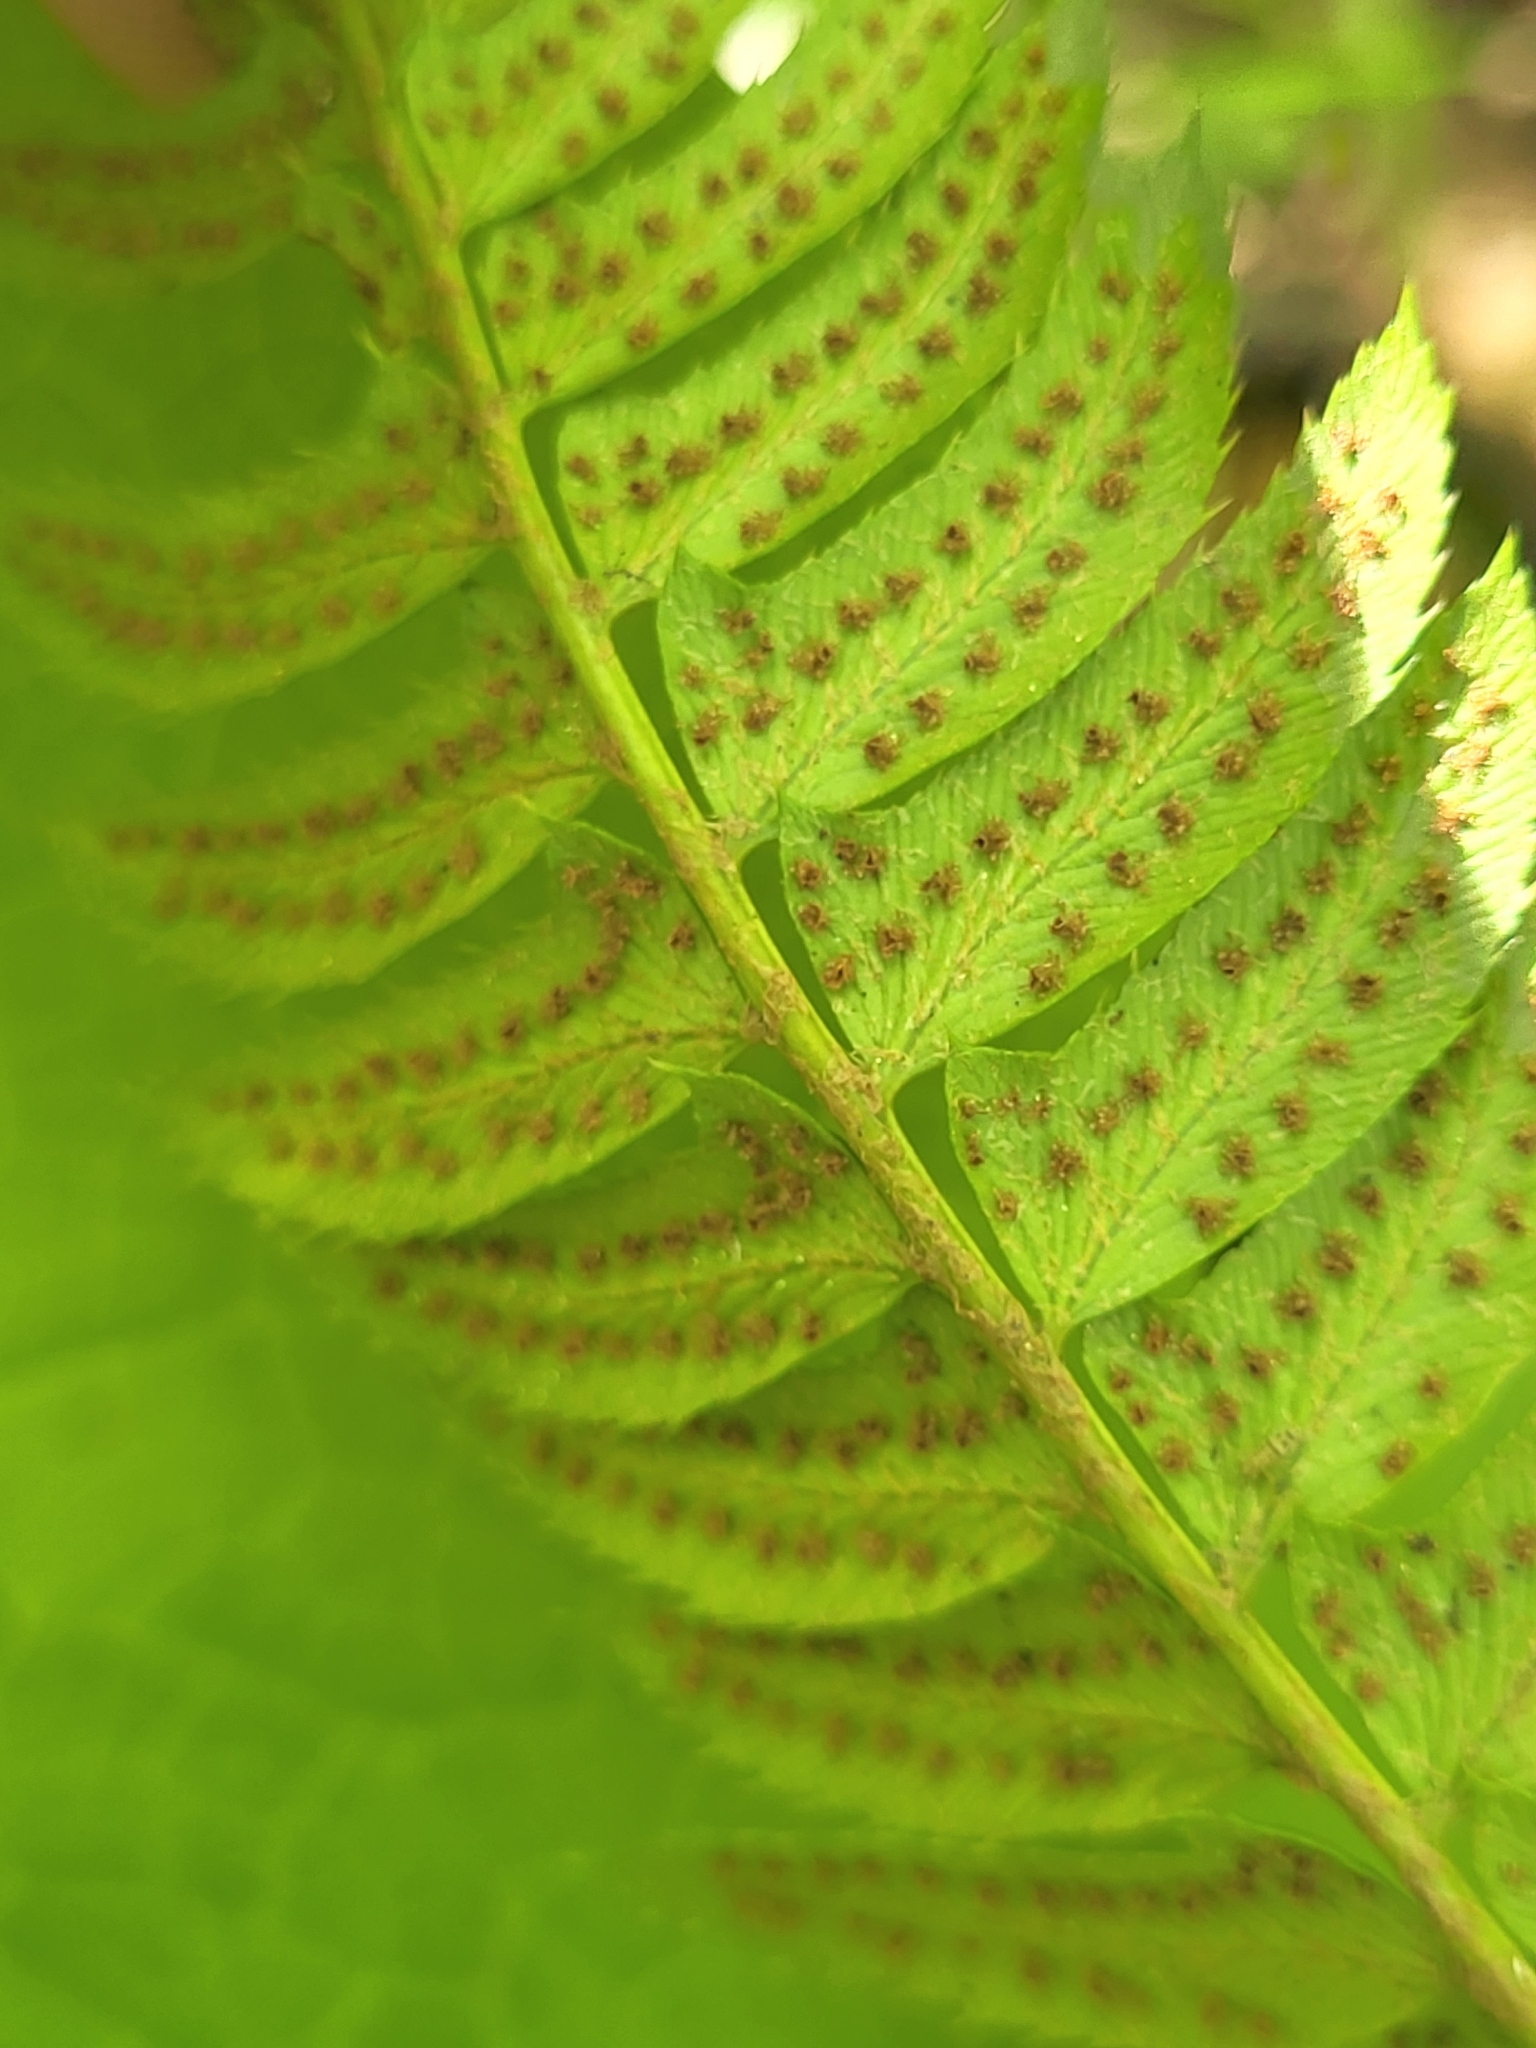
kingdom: Plantae
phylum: Tracheophyta
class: Polypodiopsida
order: Polypodiales
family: Dryopteridaceae
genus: Polystichum
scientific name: Polystichum lonchitis
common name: Holly fern
